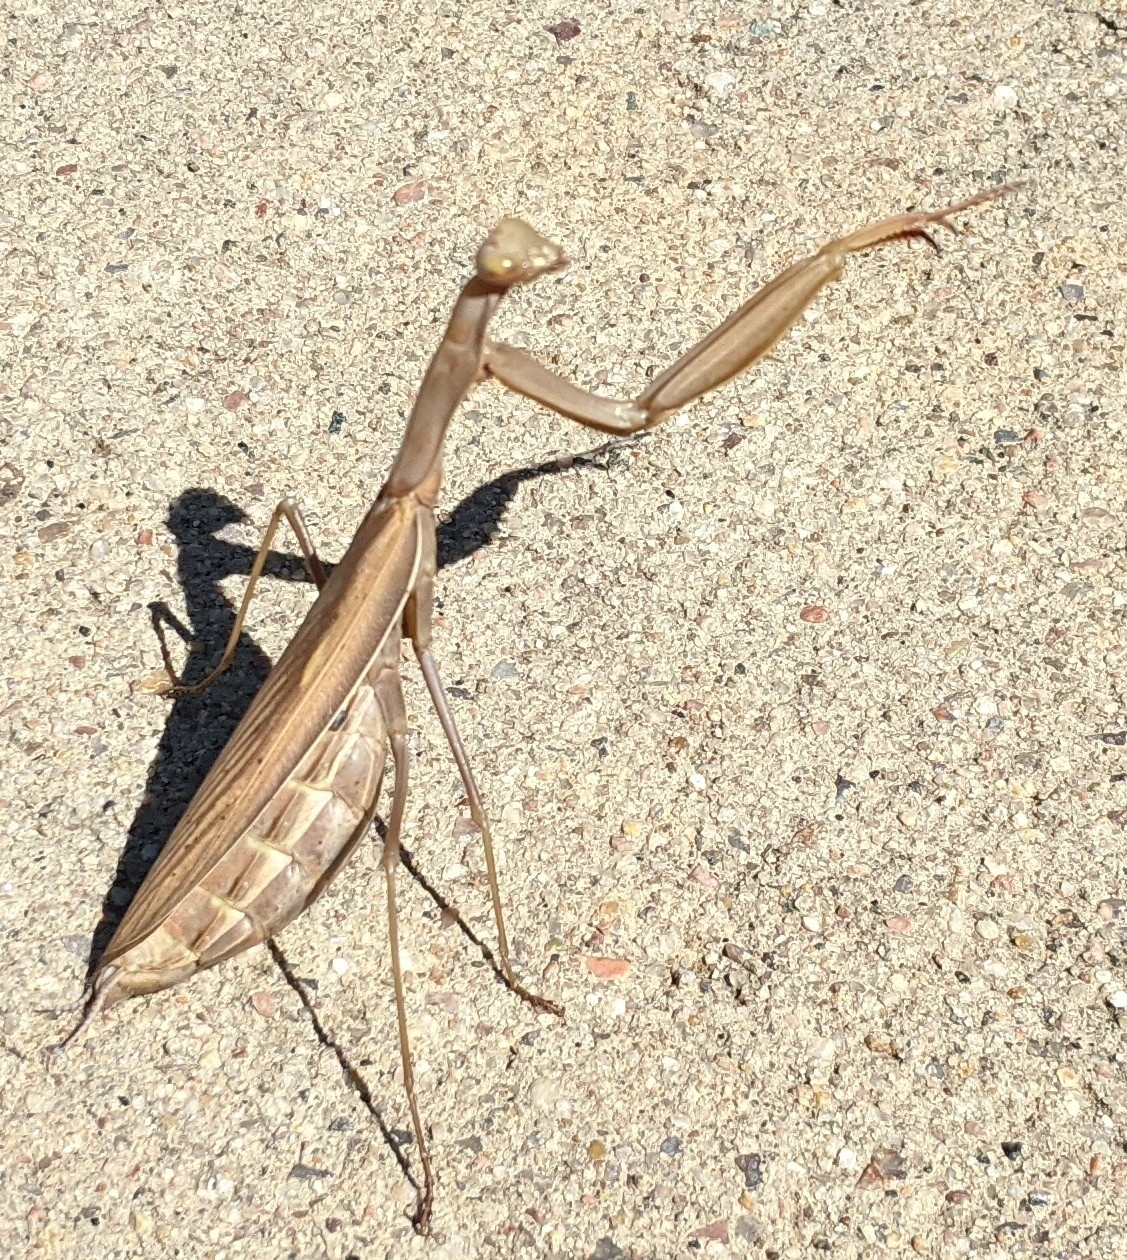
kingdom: Animalia
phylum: Arthropoda
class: Insecta
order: Mantodea
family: Mantidae
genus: Mantis
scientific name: Mantis religiosa
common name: Praying mantis
